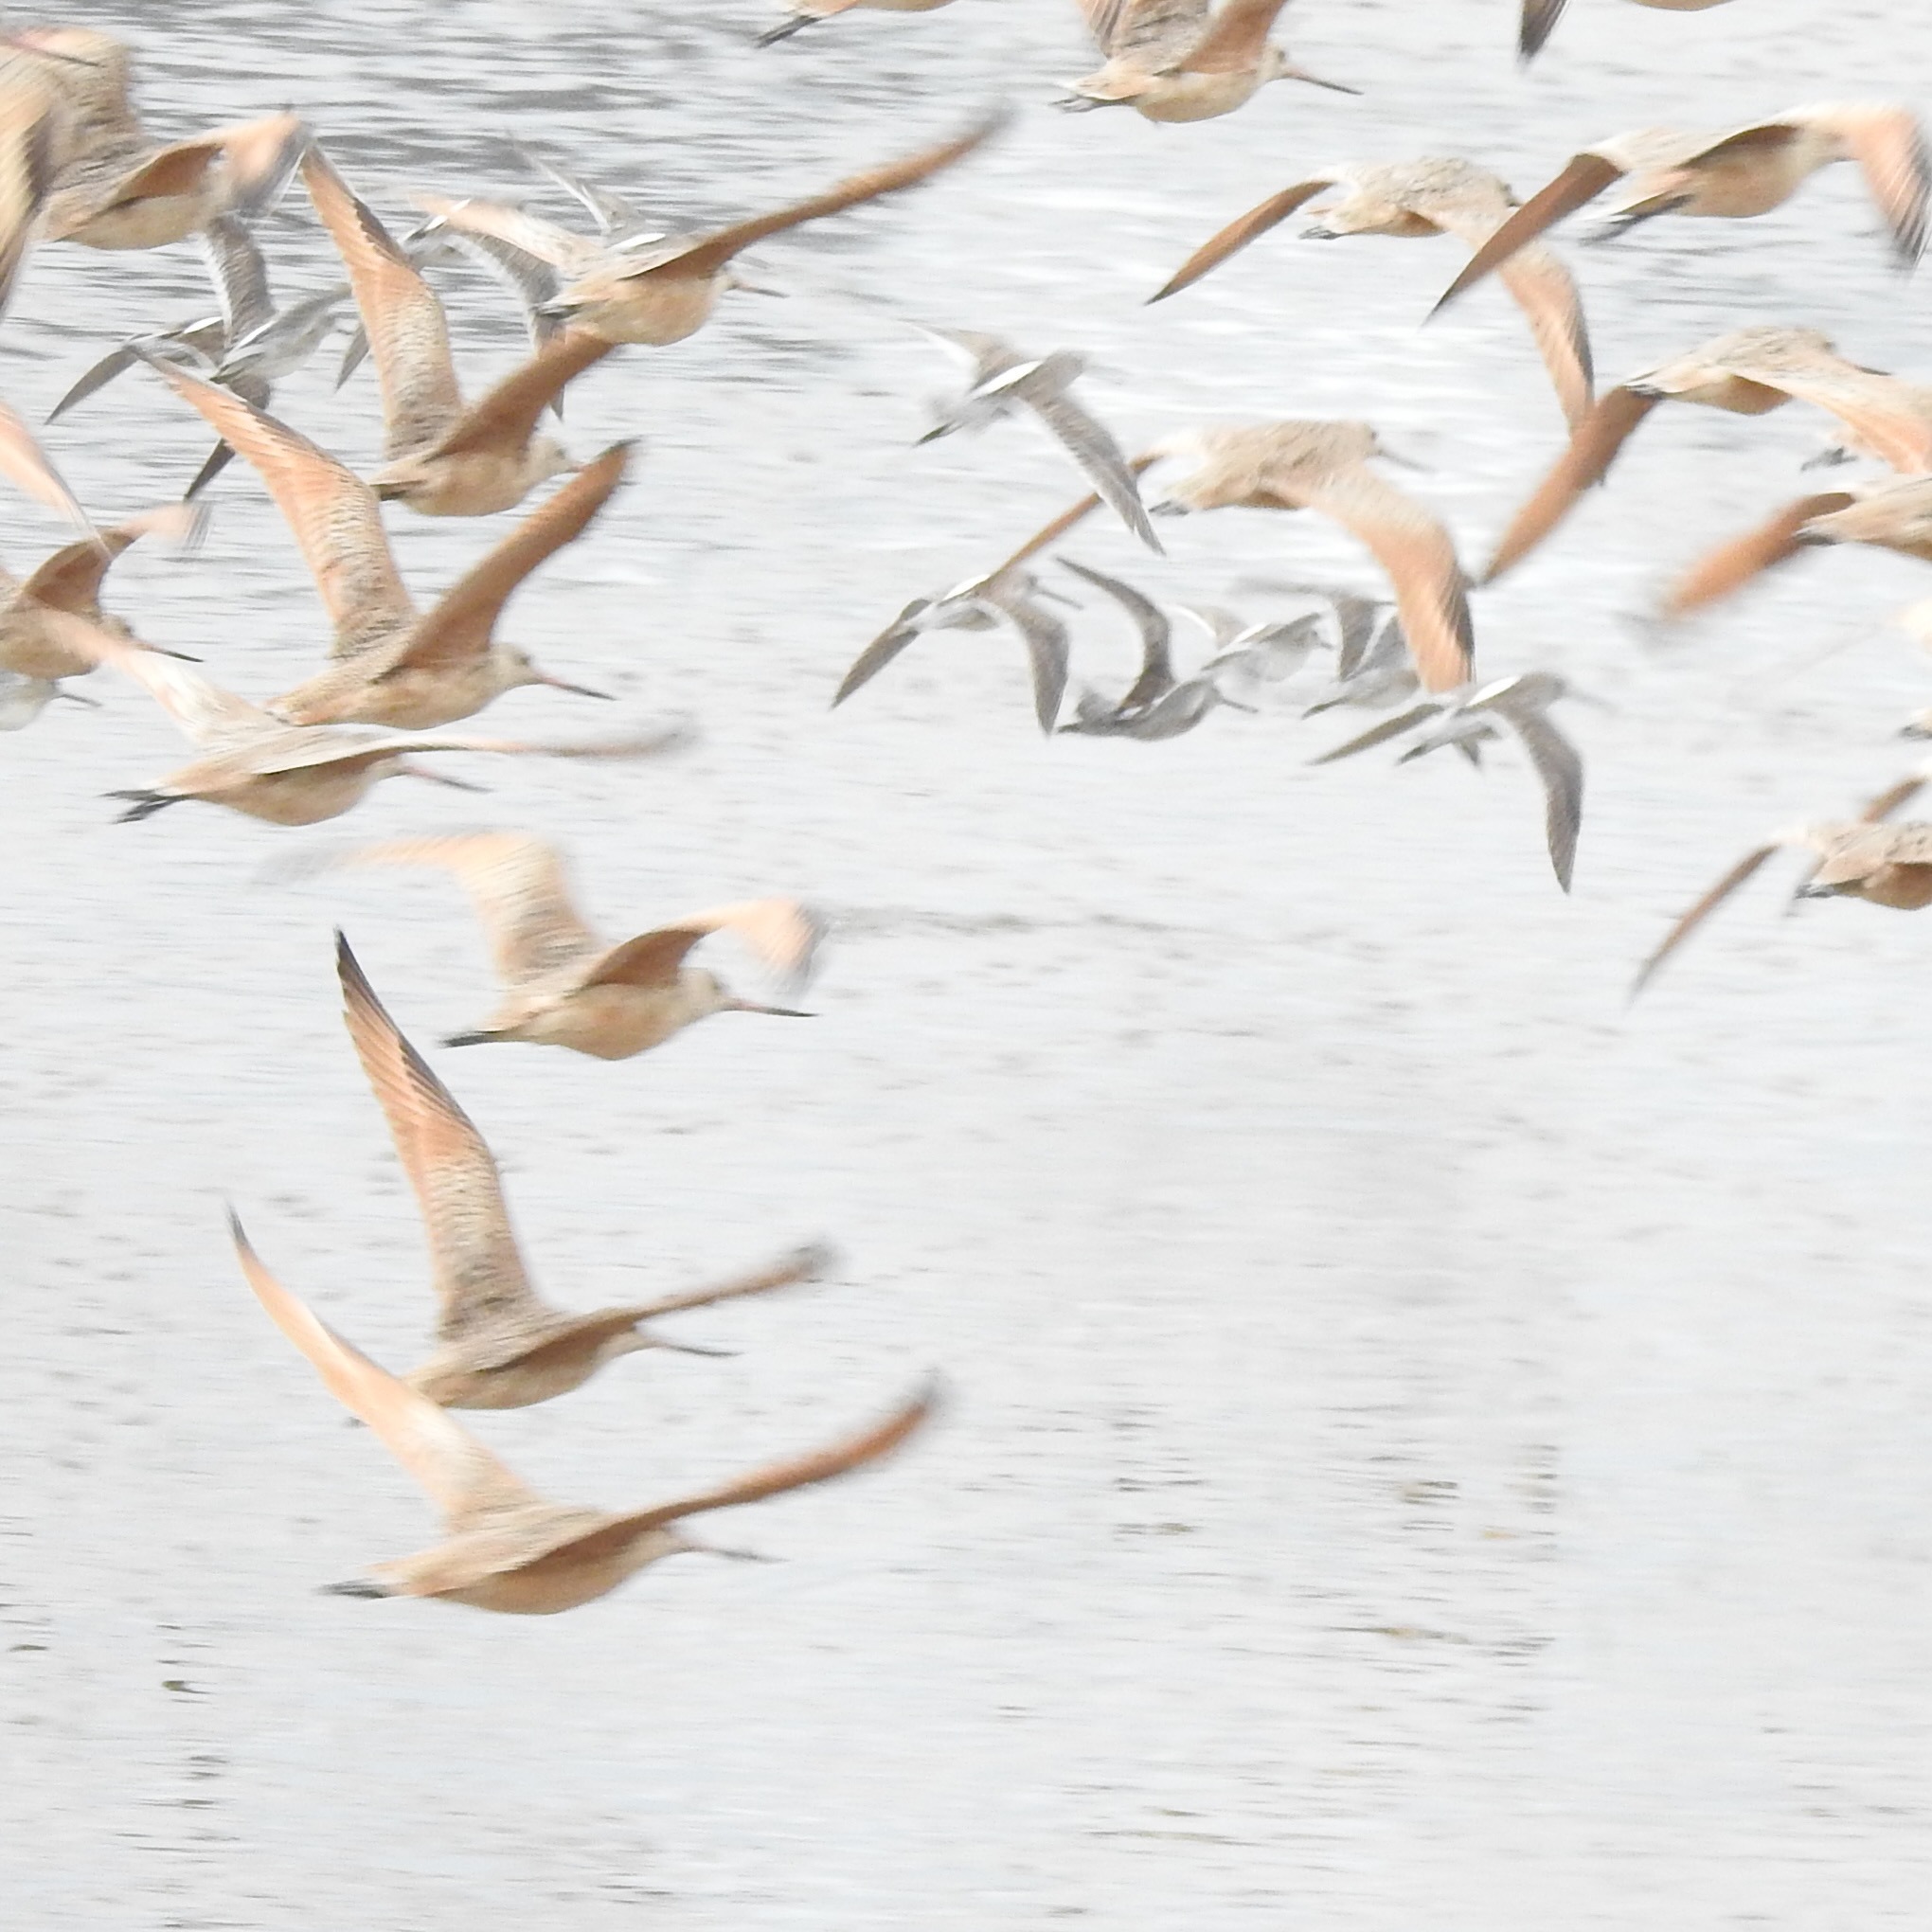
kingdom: Animalia
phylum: Chordata
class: Aves
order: Charadriiformes
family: Scolopacidae
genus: Limosa
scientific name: Limosa fedoa
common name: Marbled godwit
